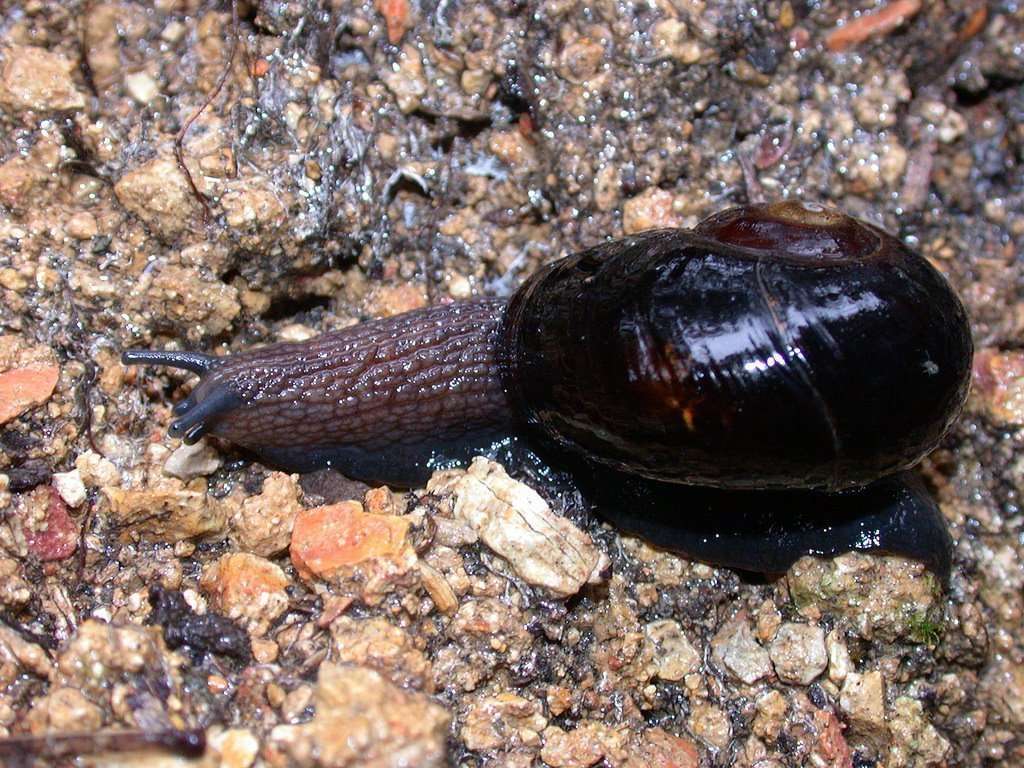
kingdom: Animalia
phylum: Mollusca
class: Gastropoda
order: Stylommatophora
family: Rhytididae
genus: Victaphanta
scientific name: Victaphanta compacta
